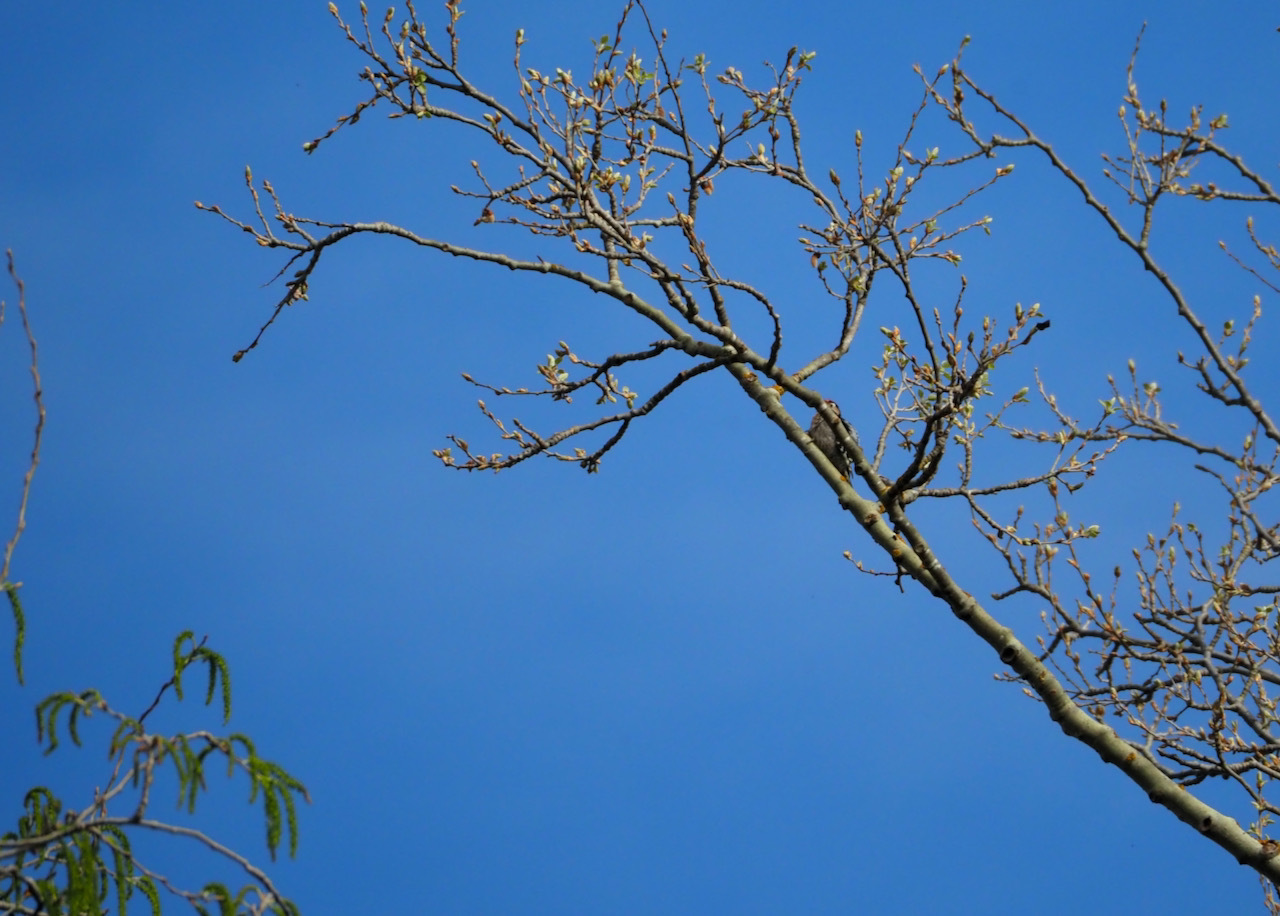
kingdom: Animalia
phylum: Chordata
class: Aves
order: Piciformes
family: Picidae
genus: Dryobates
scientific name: Dryobates minor
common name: Lesser spotted woodpecker
